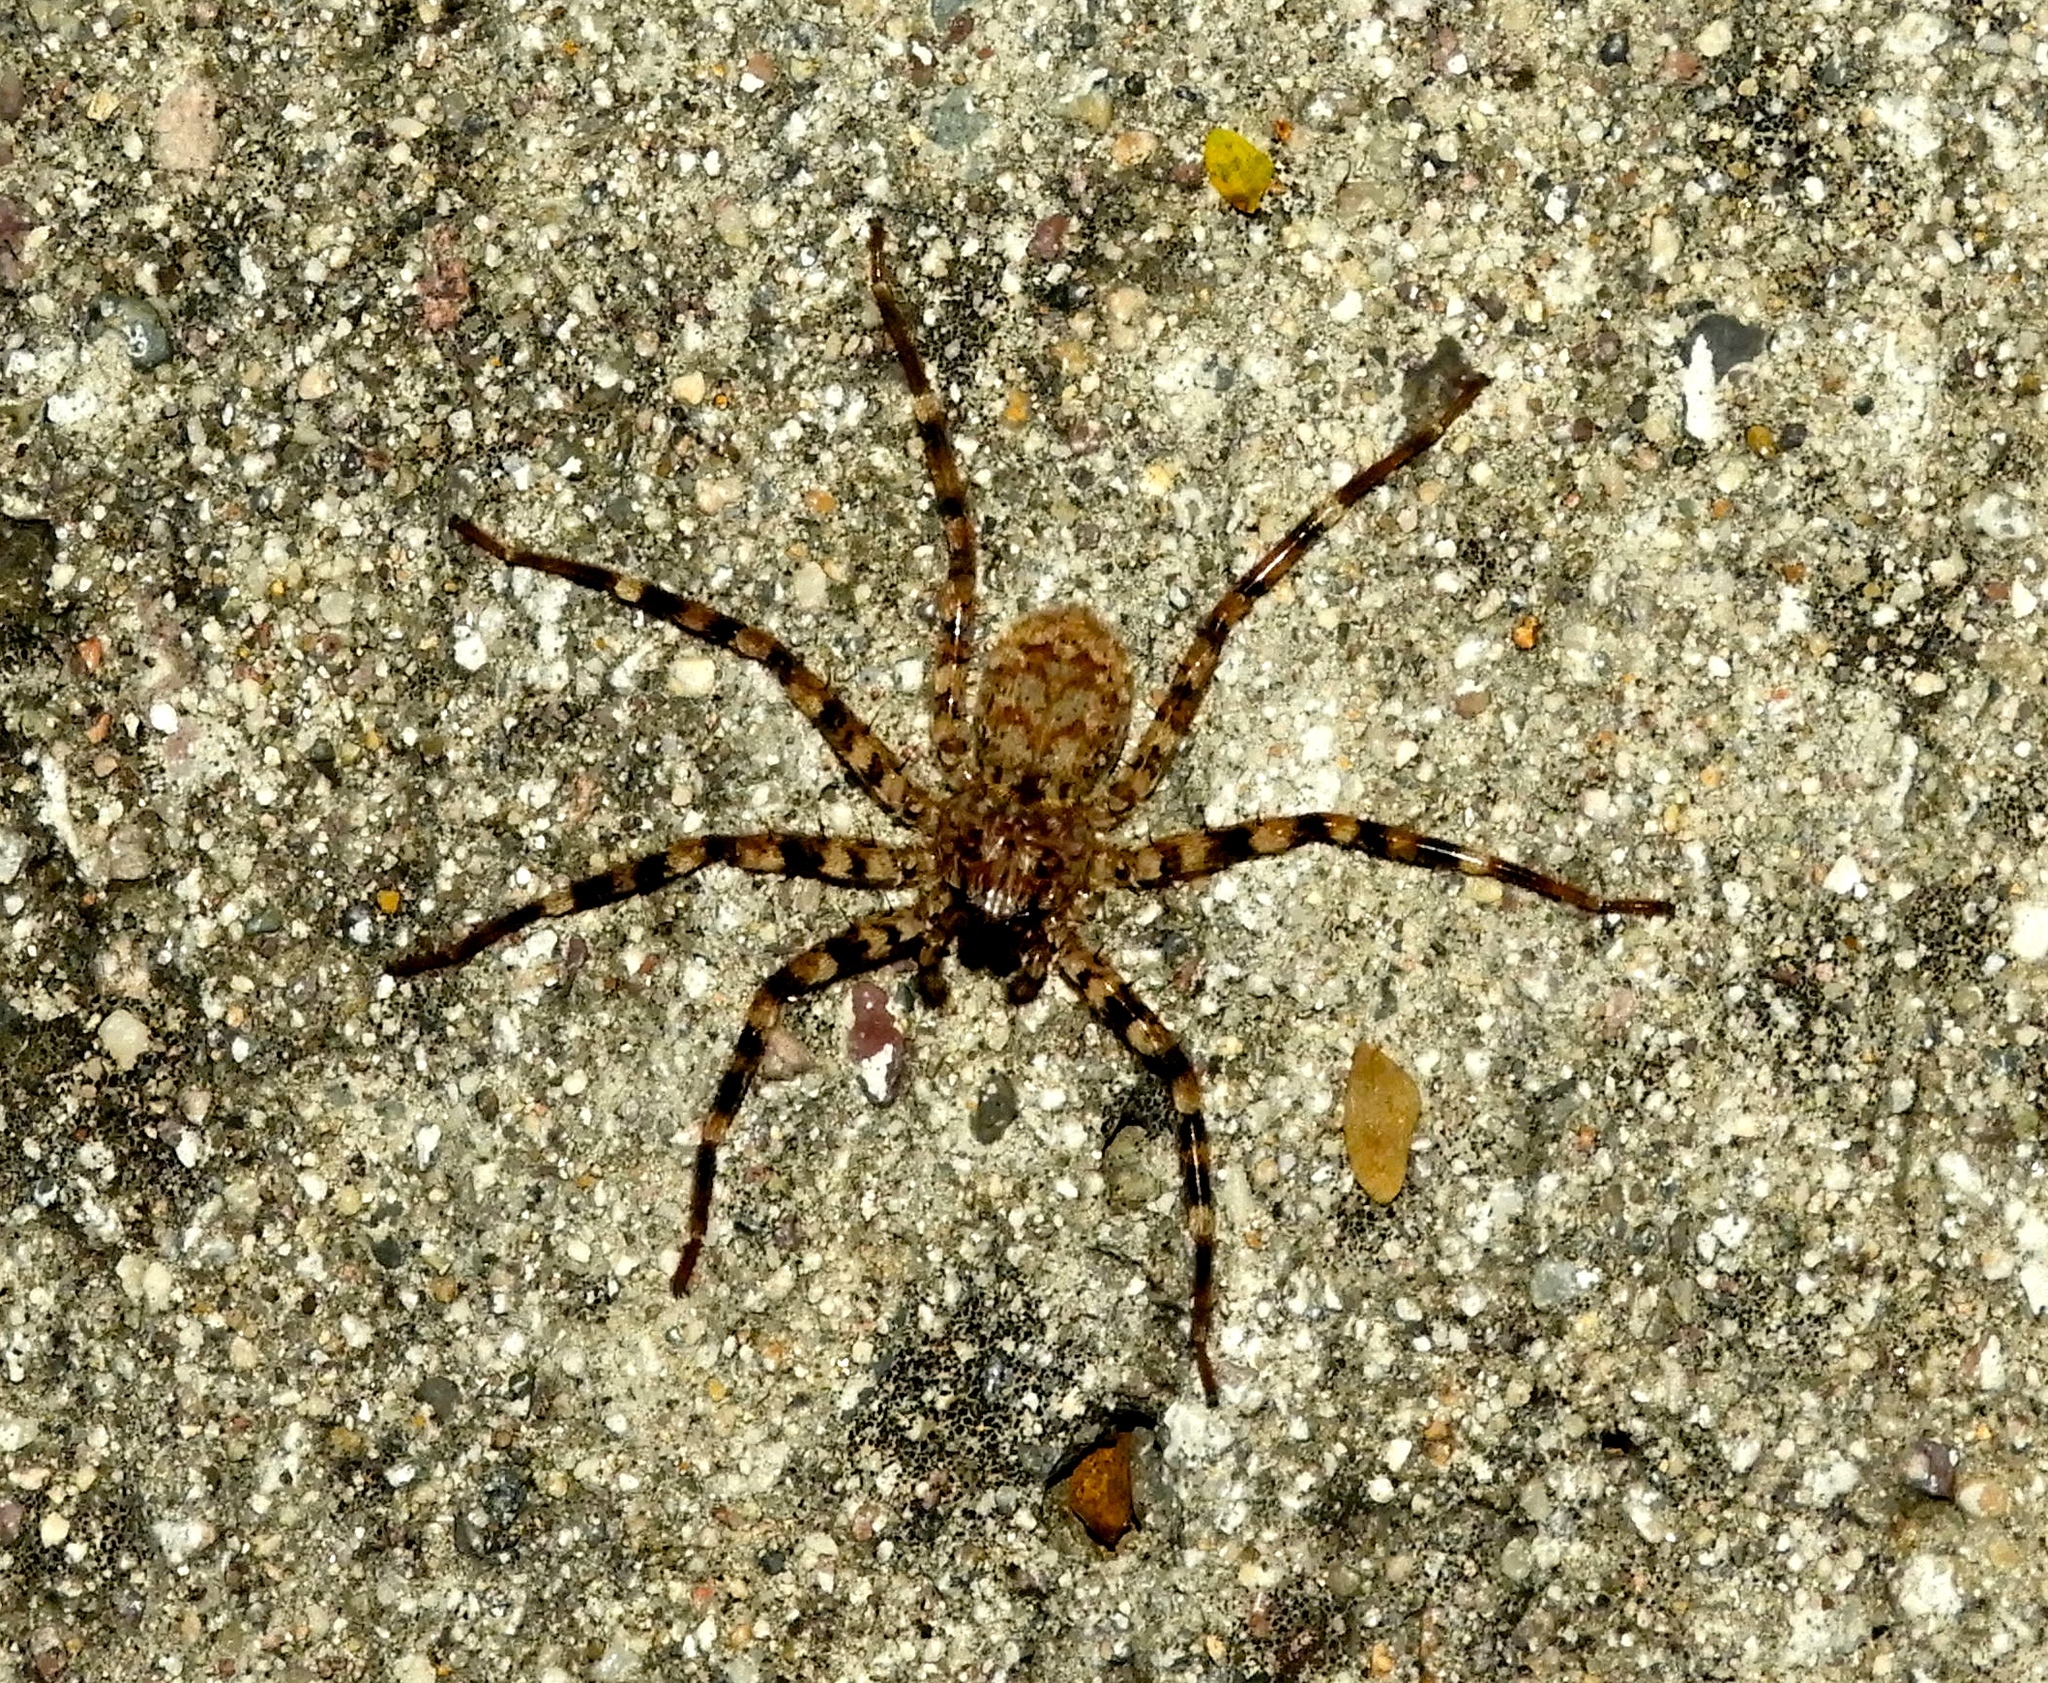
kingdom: Animalia
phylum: Arthropoda
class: Arachnida
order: Araneae
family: Selenopidae
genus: Selenops
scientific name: Selenops
